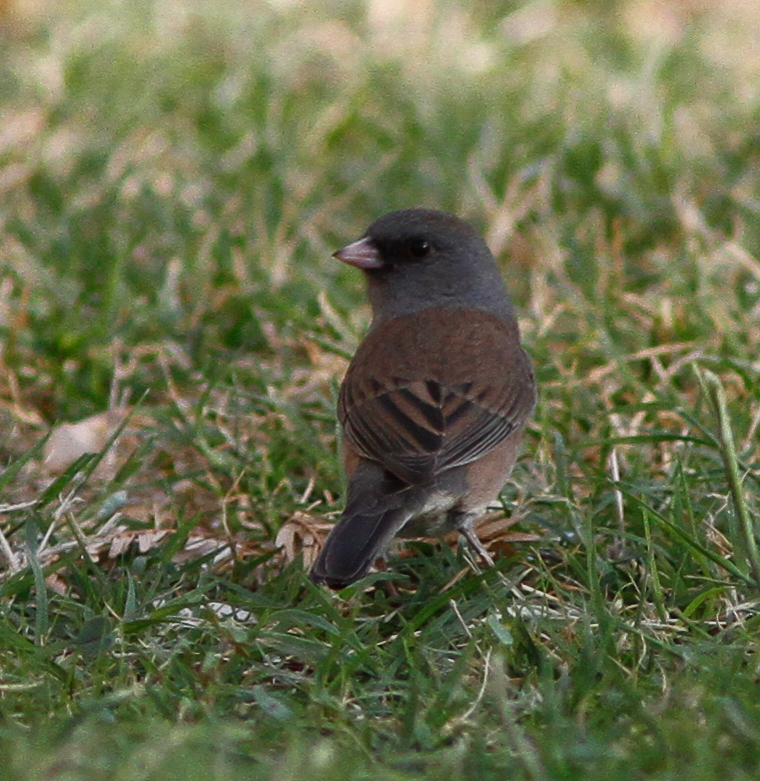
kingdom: Animalia
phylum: Chordata
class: Aves
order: Passeriformes
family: Passerellidae
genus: Junco
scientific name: Junco hyemalis
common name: Dark-eyed junco
